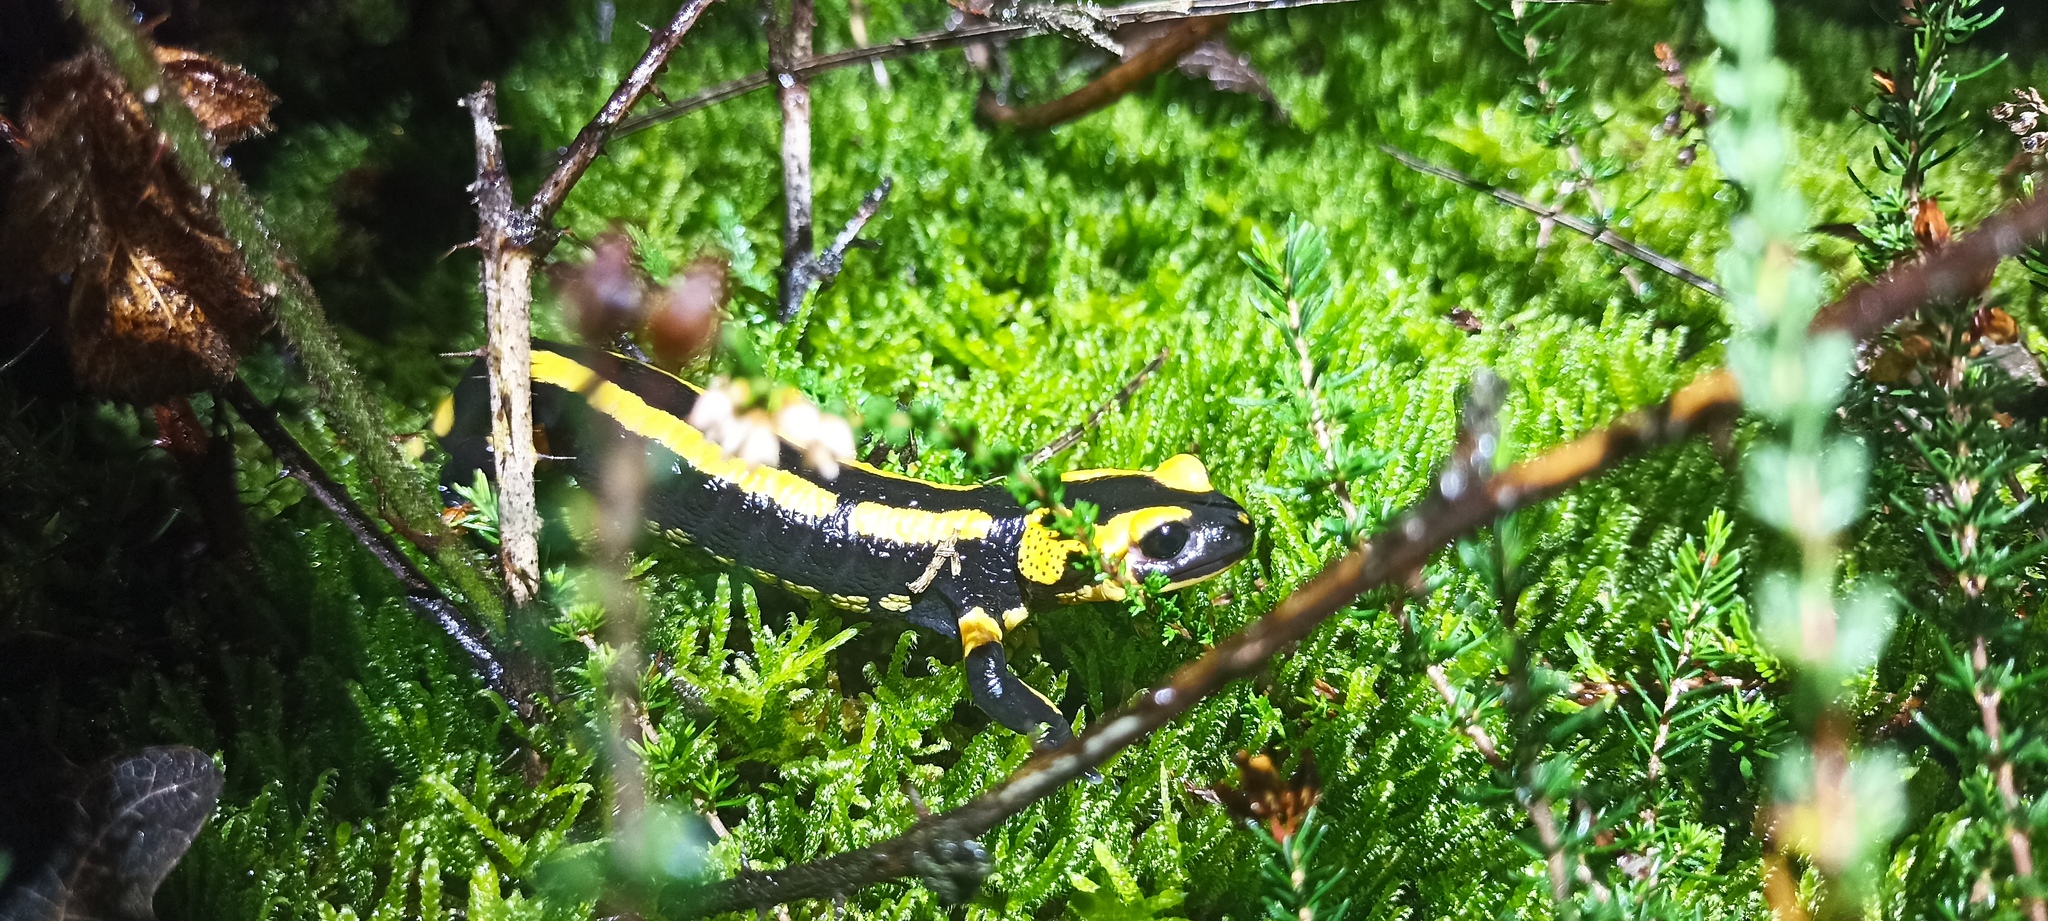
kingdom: Animalia
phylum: Chordata
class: Amphibia
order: Caudata
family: Salamandridae
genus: Salamandra
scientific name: Salamandra salamandra
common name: Fire salamander
